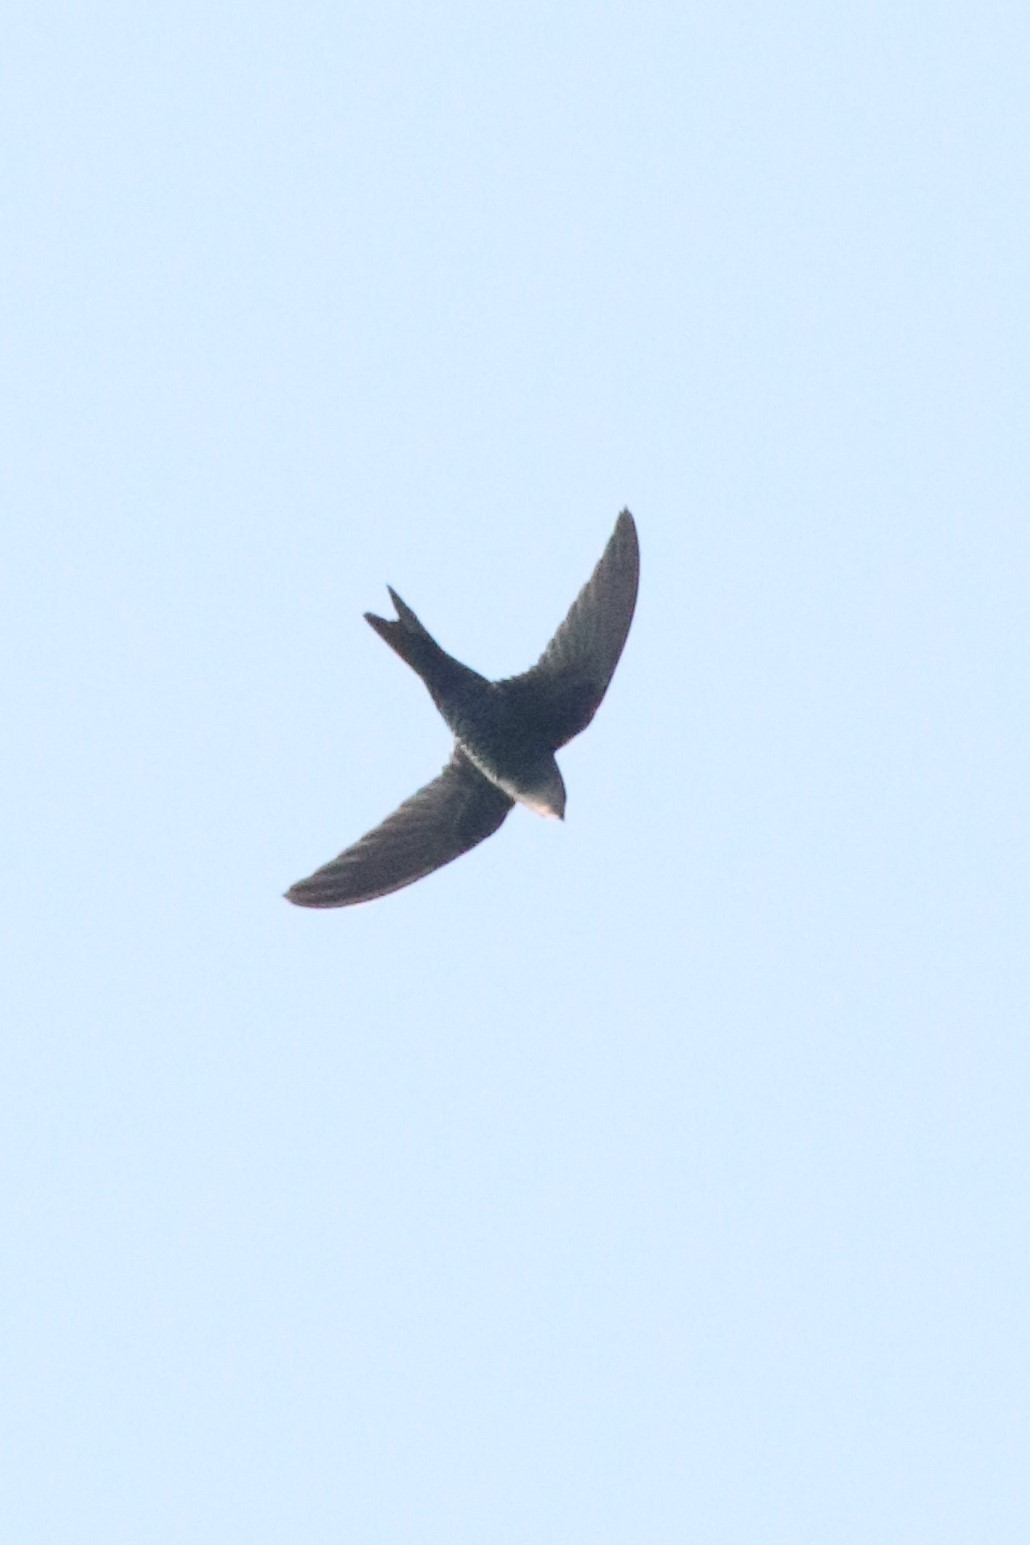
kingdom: Animalia
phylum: Chordata
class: Aves
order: Apodiformes
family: Apodidae
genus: Apus
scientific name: Apus cooki
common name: Cook's swift
